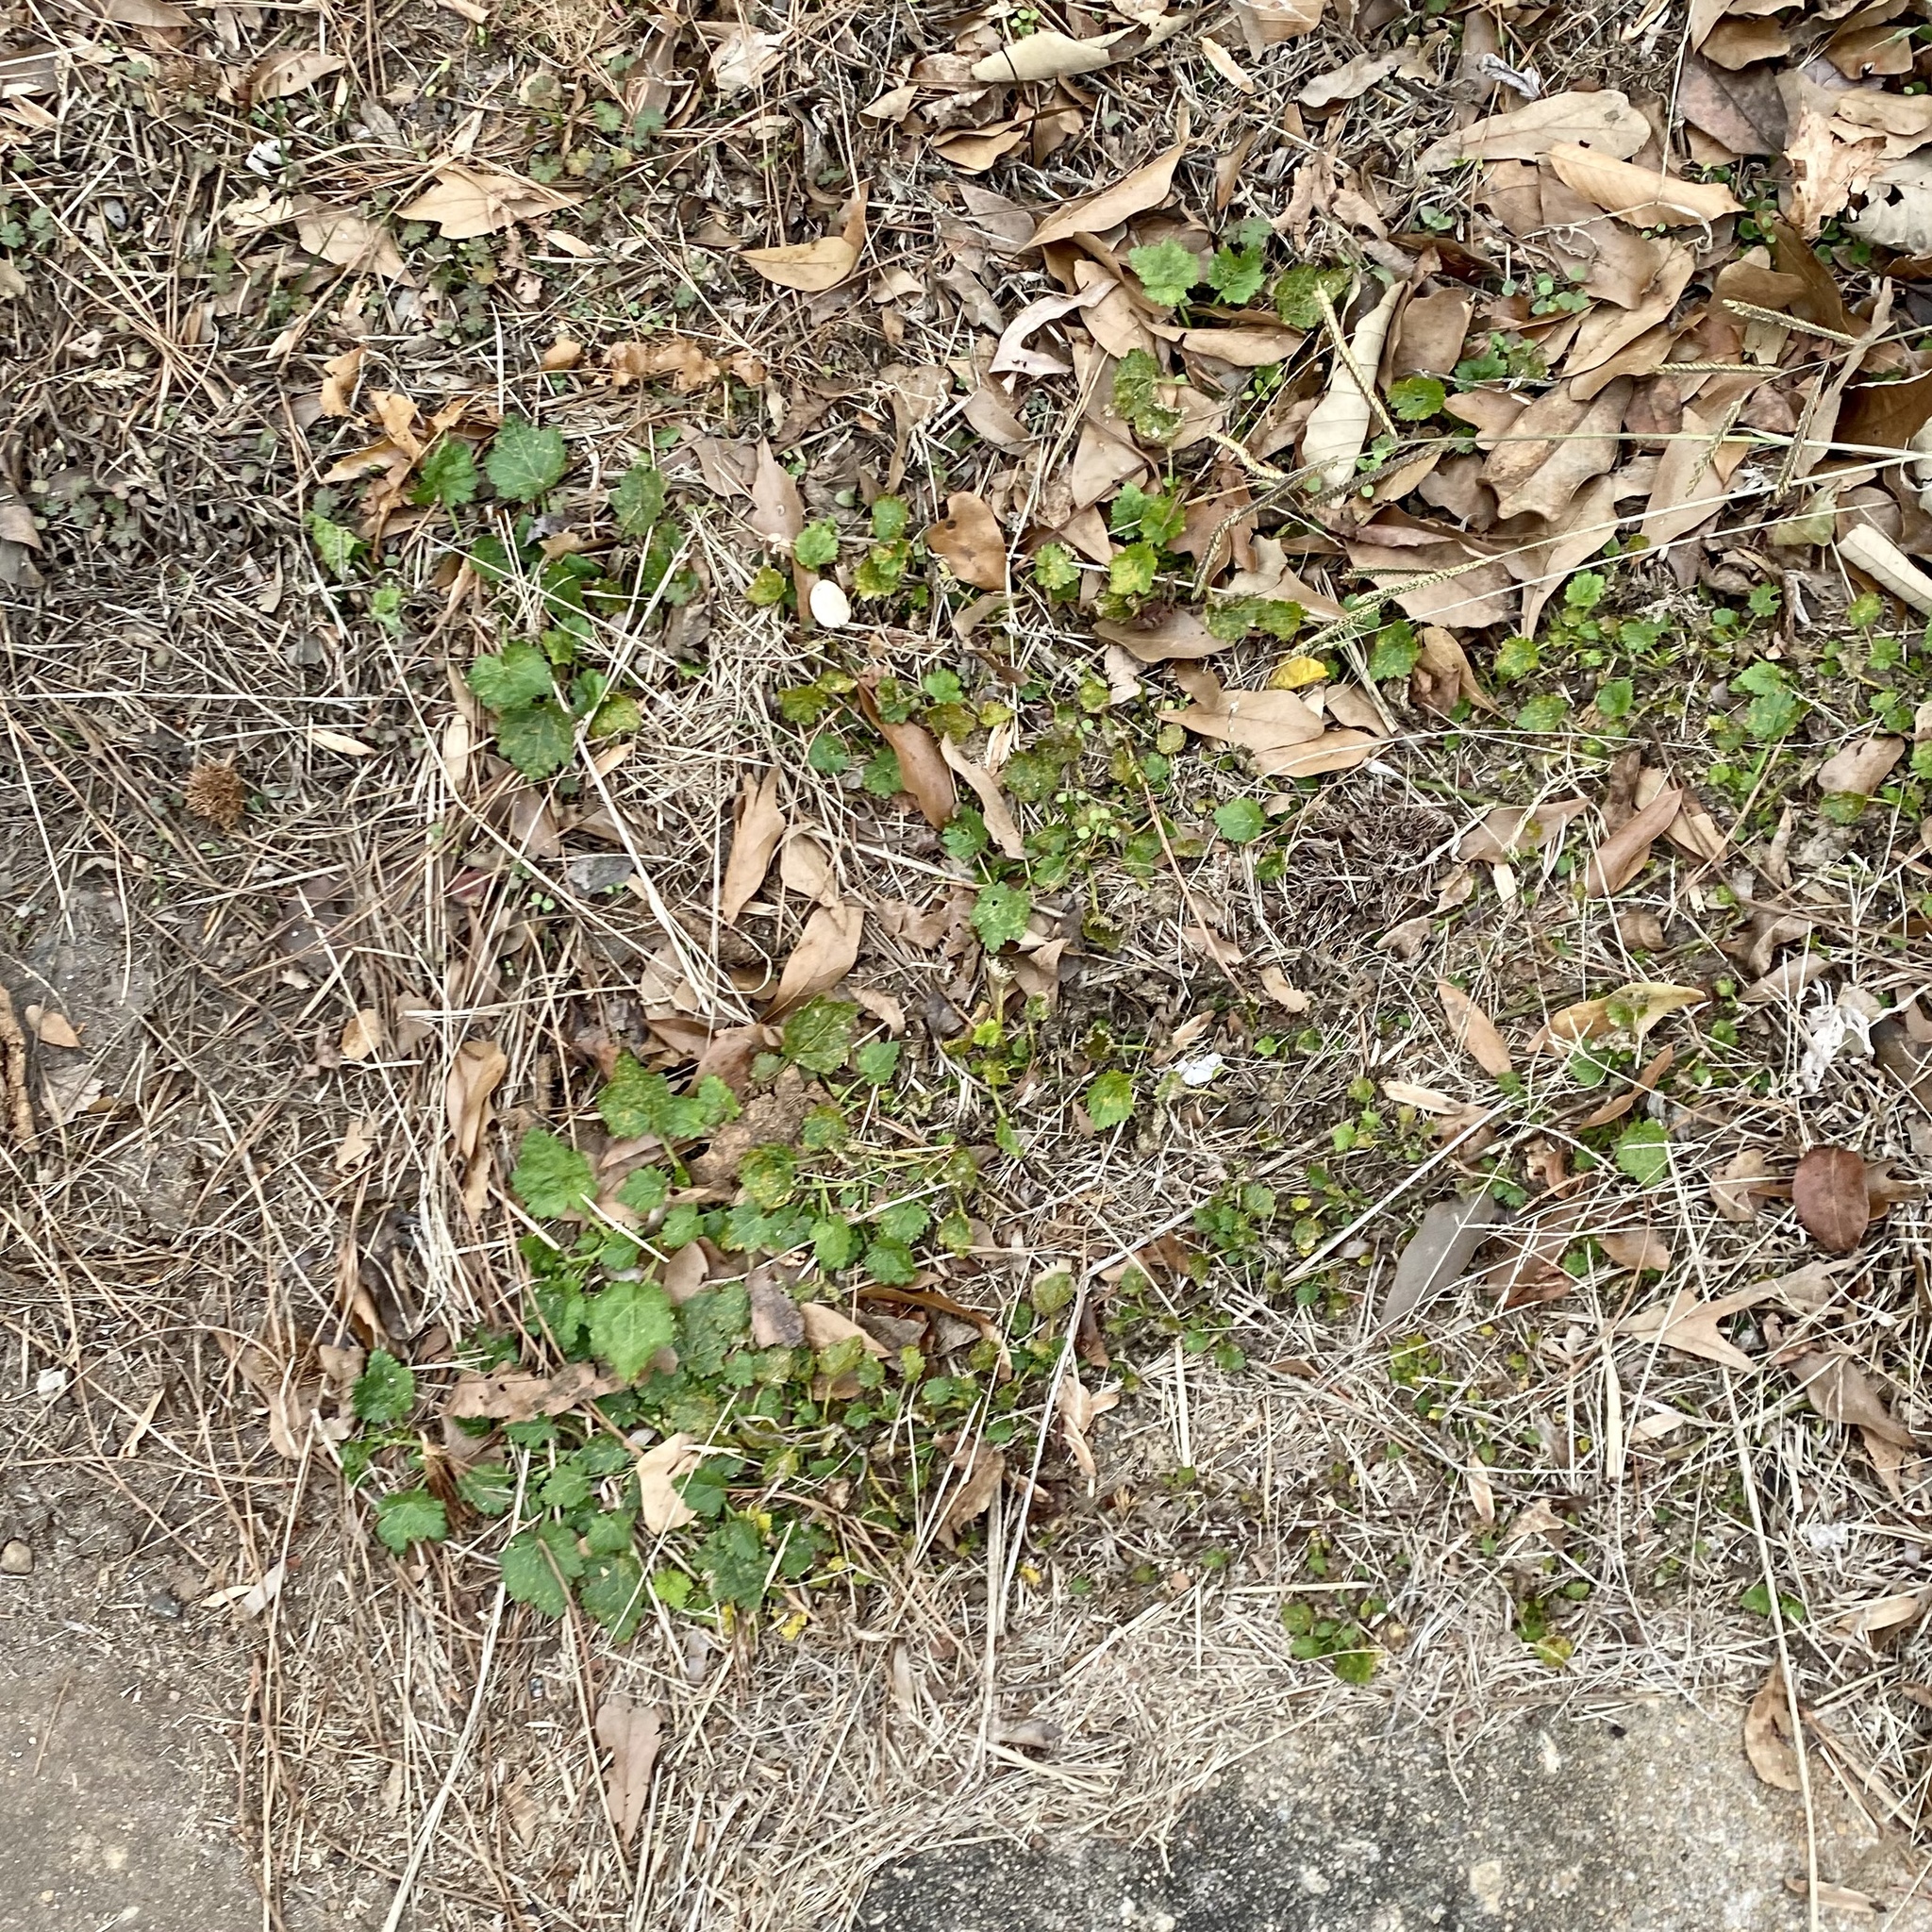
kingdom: Plantae
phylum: Tracheophyta
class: Magnoliopsida
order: Malvales
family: Malvaceae
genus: Modiola
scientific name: Modiola caroliniana
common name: Carolina bristlemallow
